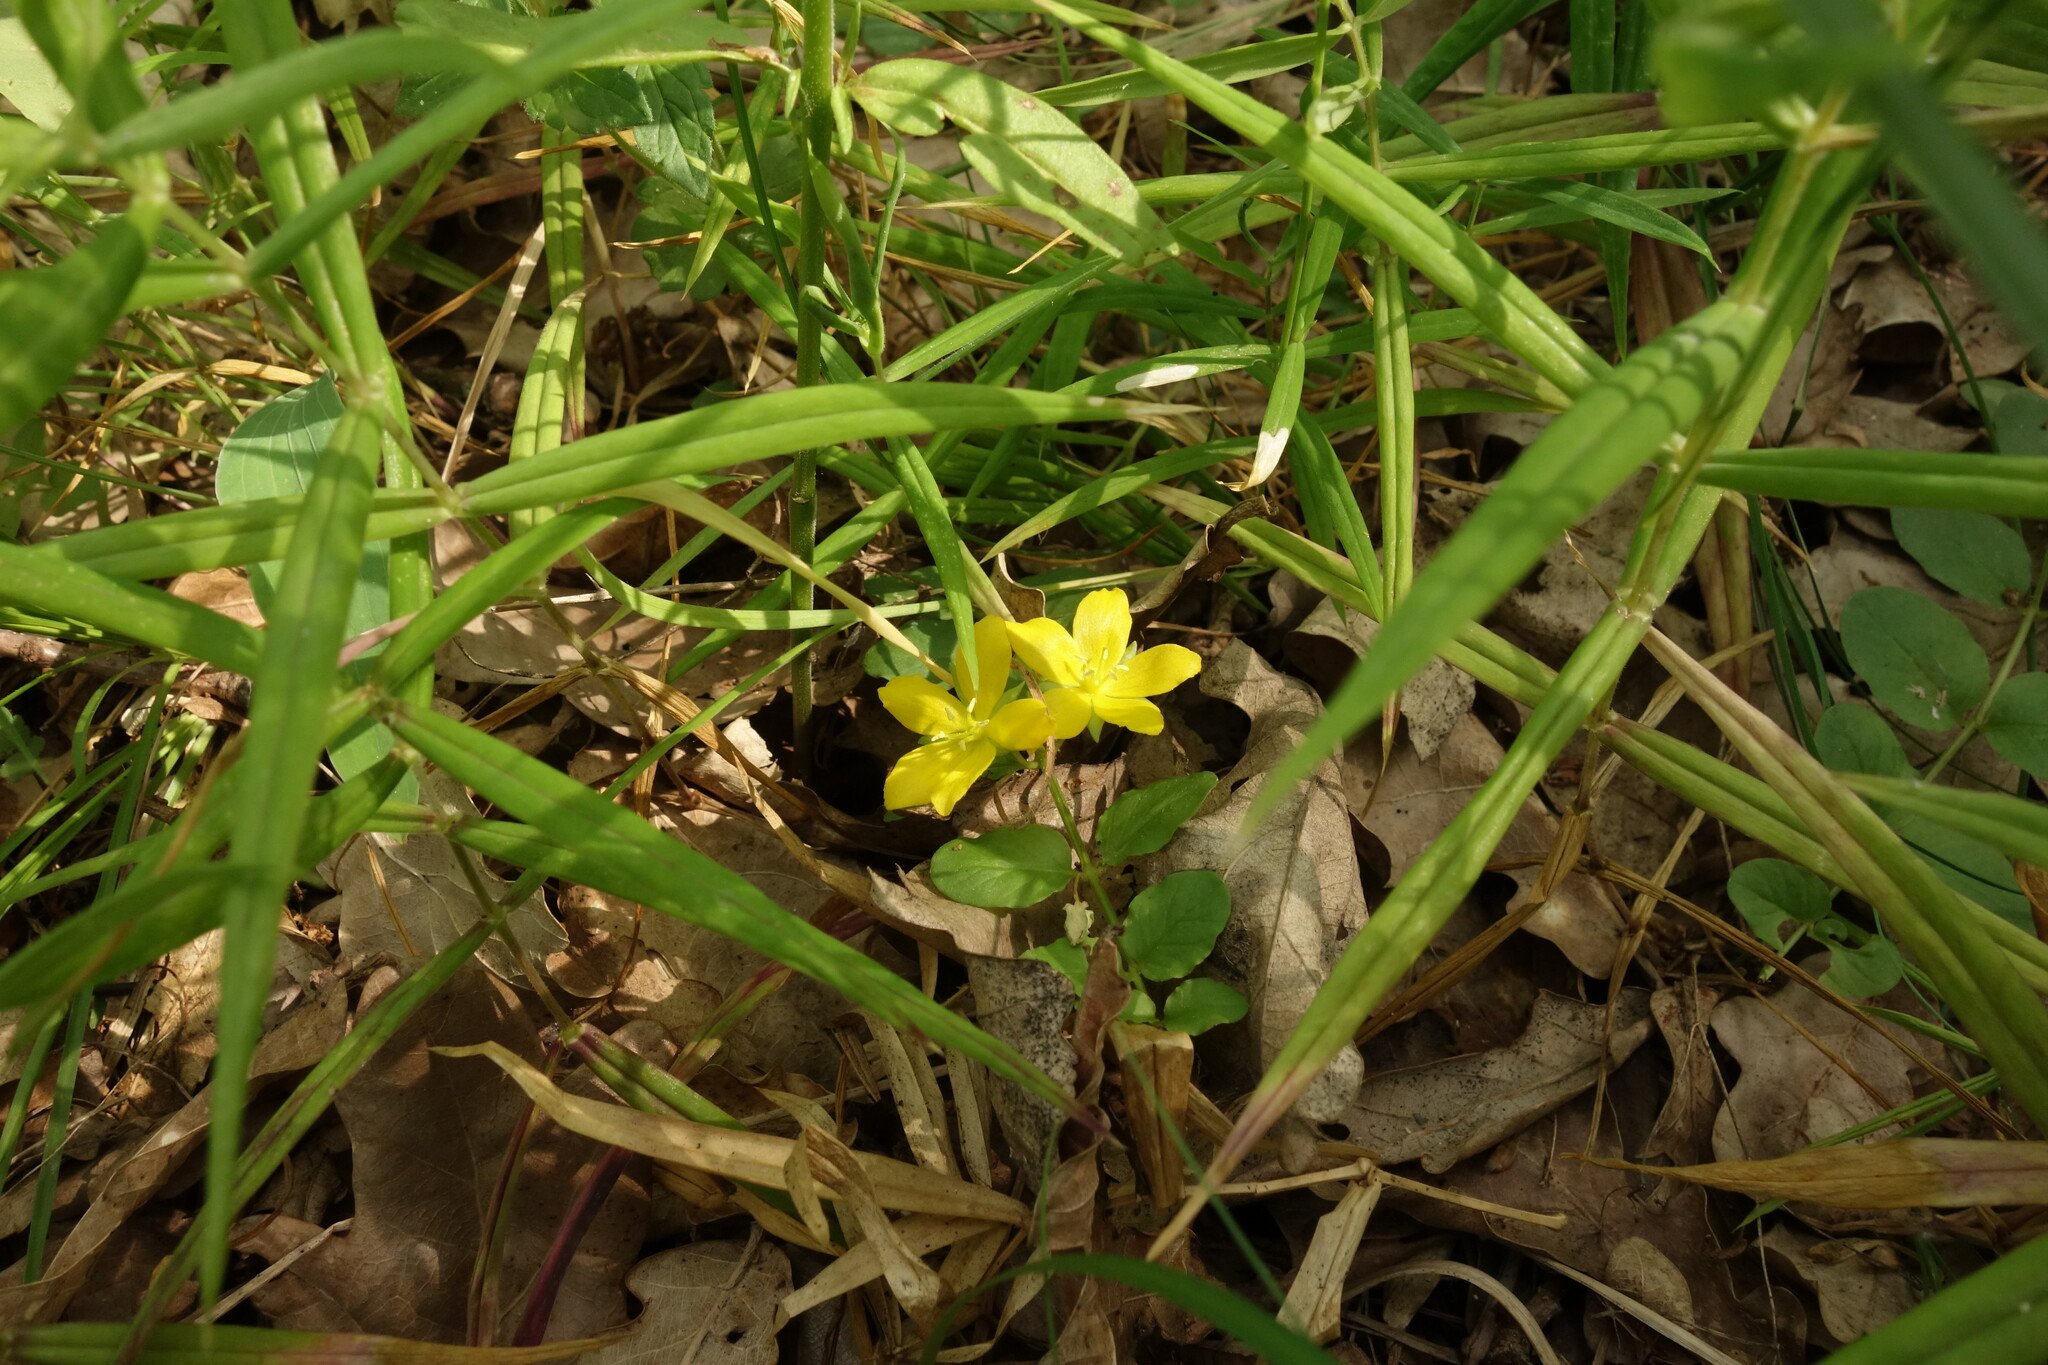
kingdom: Plantae
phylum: Tracheophyta
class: Magnoliopsida
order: Ericales
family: Primulaceae
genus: Lysimachia
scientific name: Lysimachia nummularia
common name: Moneywort
